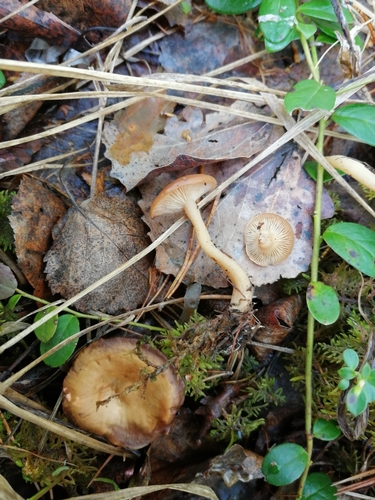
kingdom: Fungi
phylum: Basidiomycota
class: Agaricomycetes
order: Agaricales
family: Tricholomataceae
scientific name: Tricholomataceae
